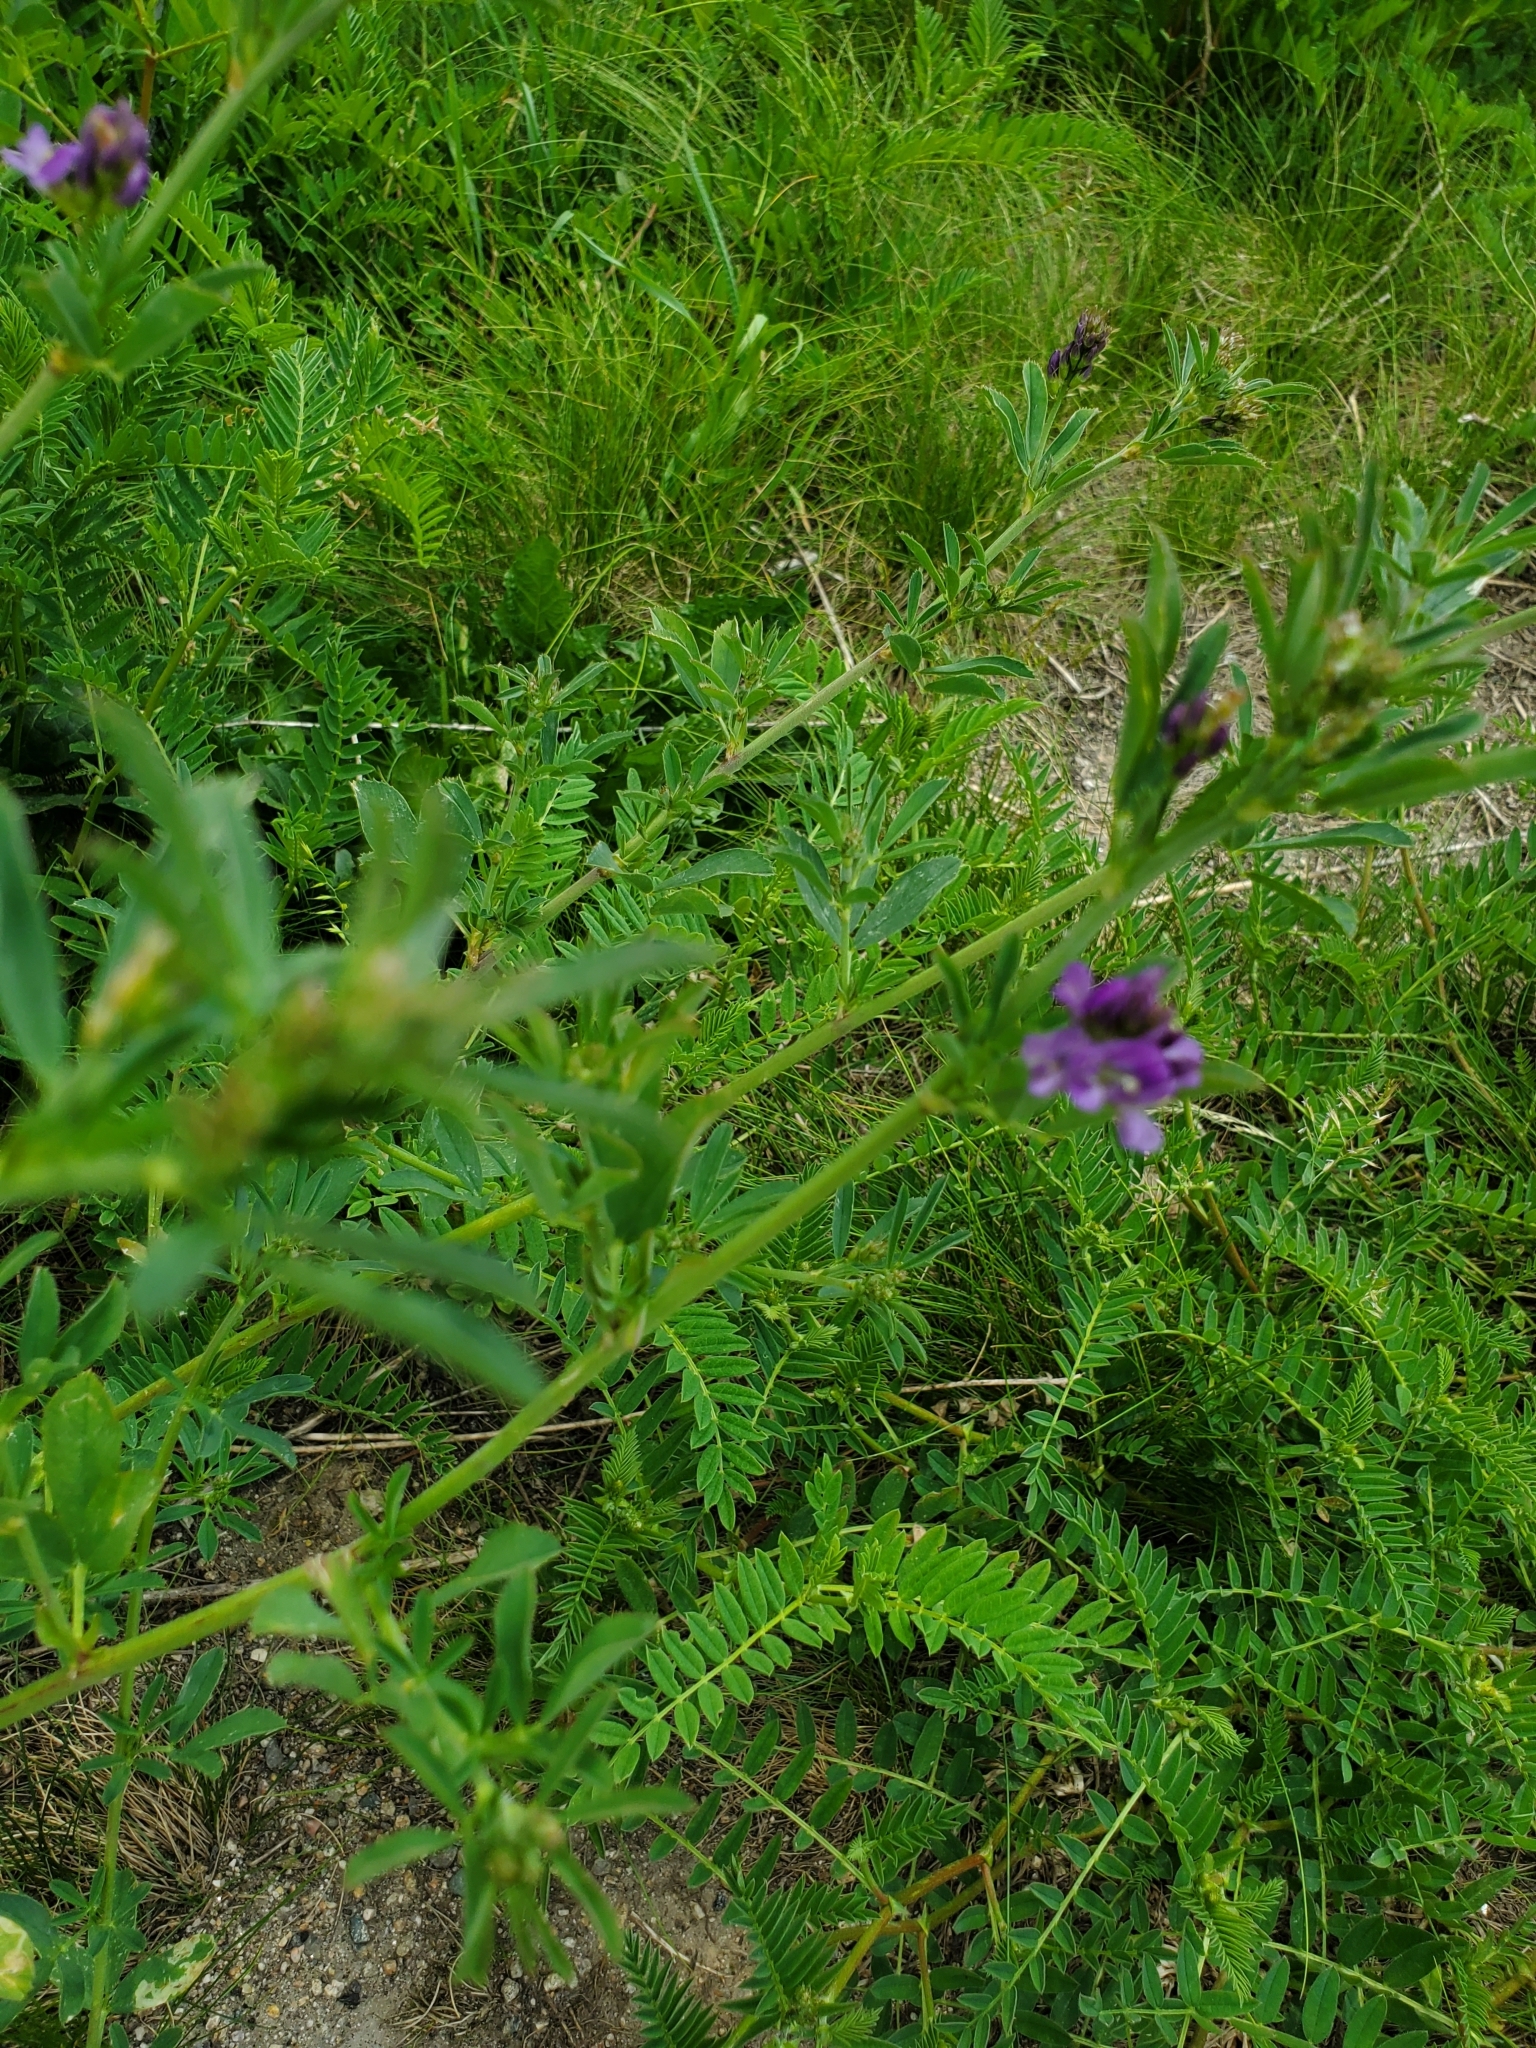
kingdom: Plantae
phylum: Tracheophyta
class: Magnoliopsida
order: Fabales
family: Fabaceae
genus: Medicago
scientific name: Medicago sativa
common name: Alfalfa
